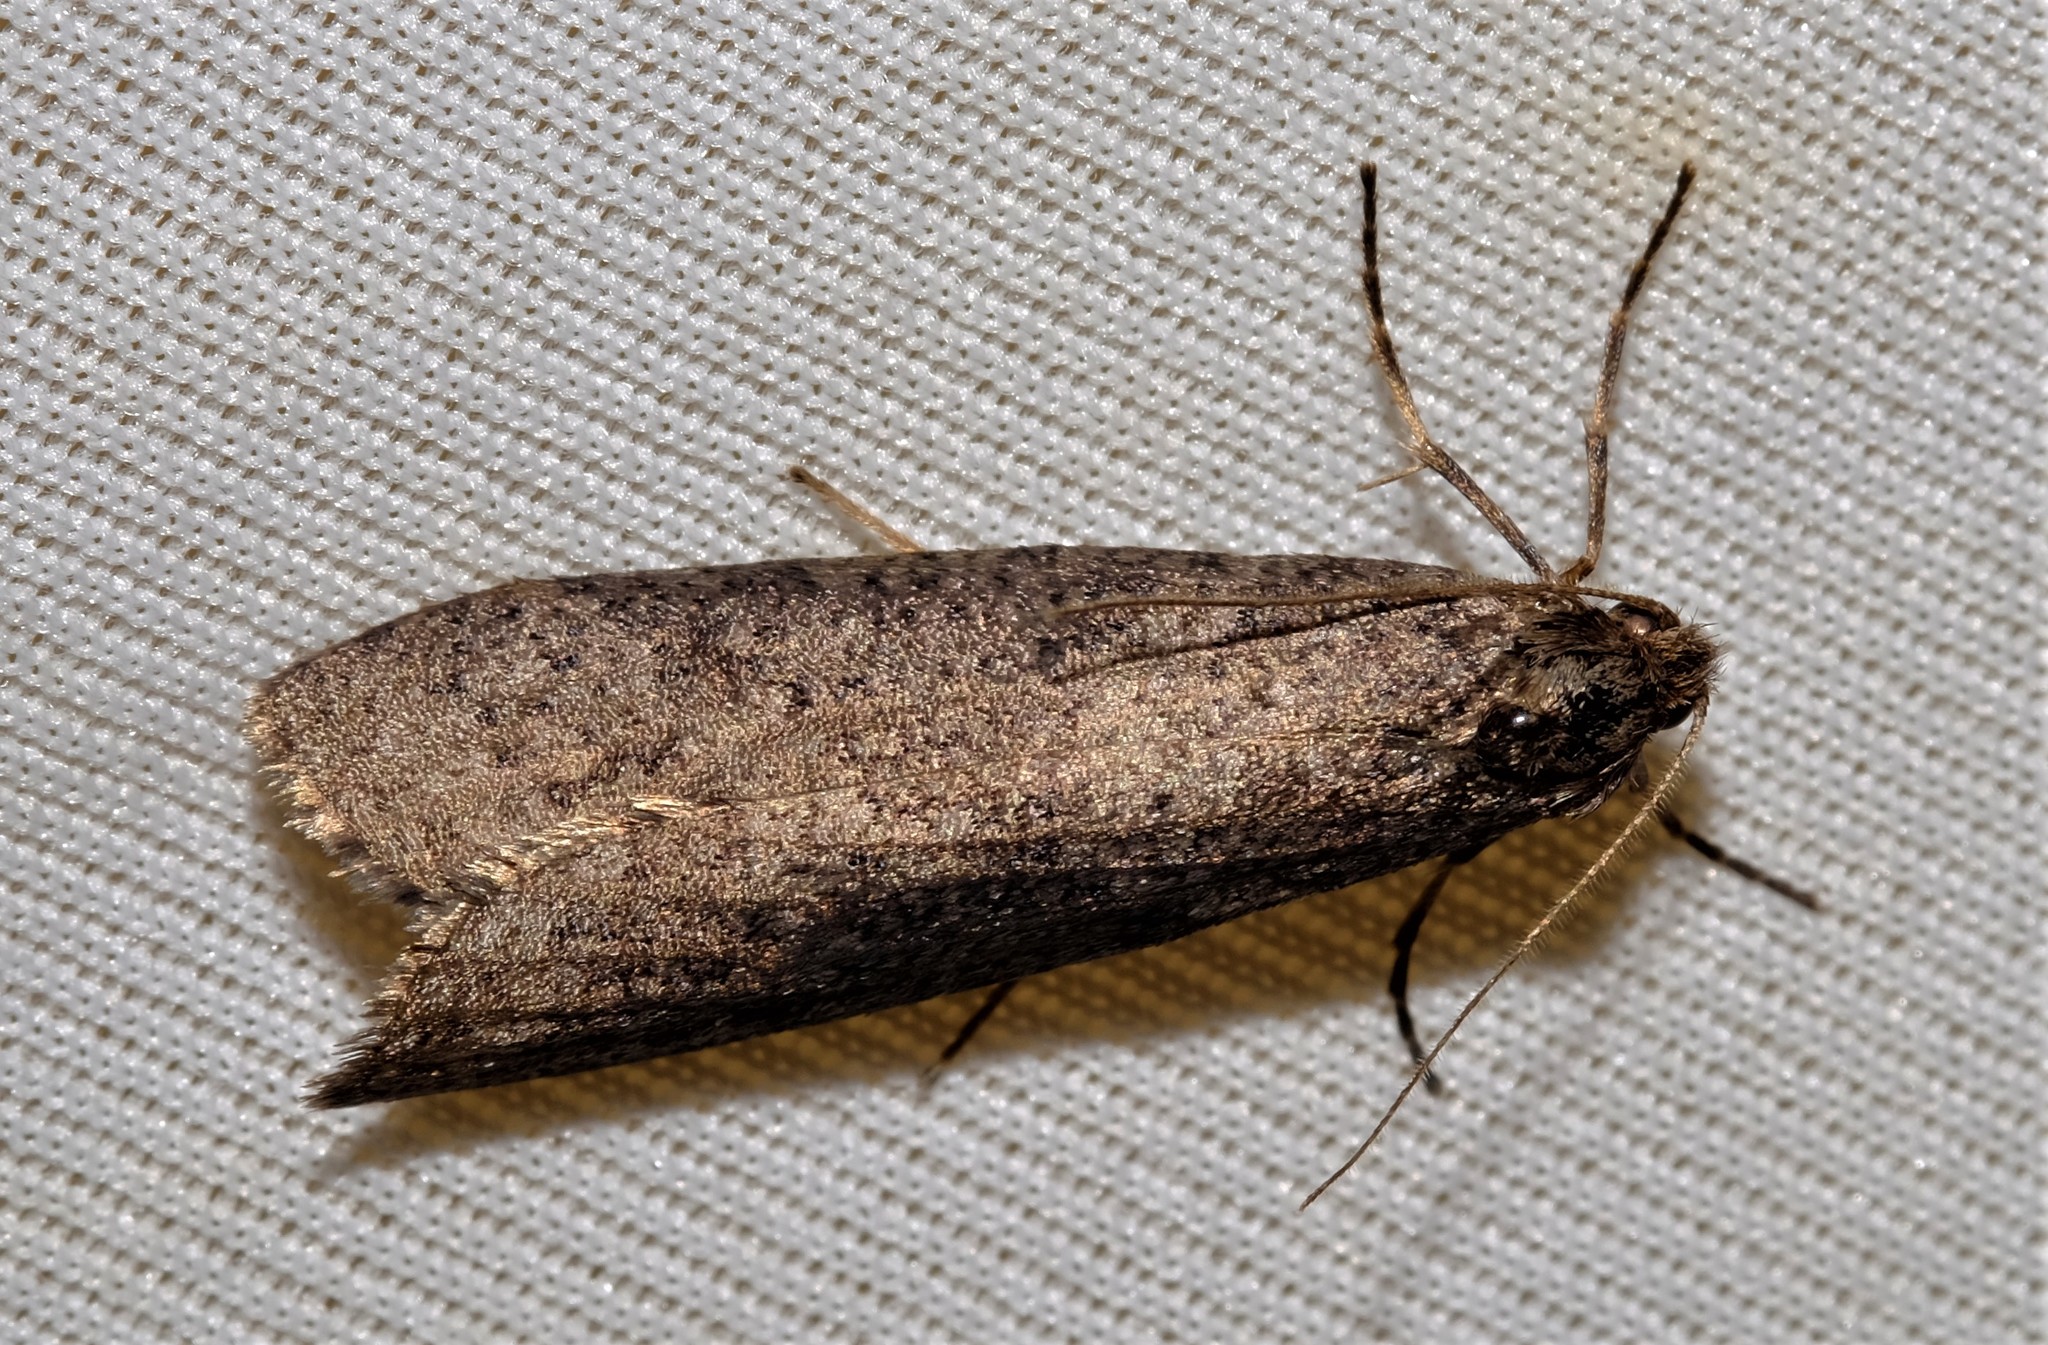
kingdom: Animalia
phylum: Arthropoda
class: Insecta
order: Lepidoptera
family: Psychidae
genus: Lepidoscia
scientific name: Lepidoscia euryptera
